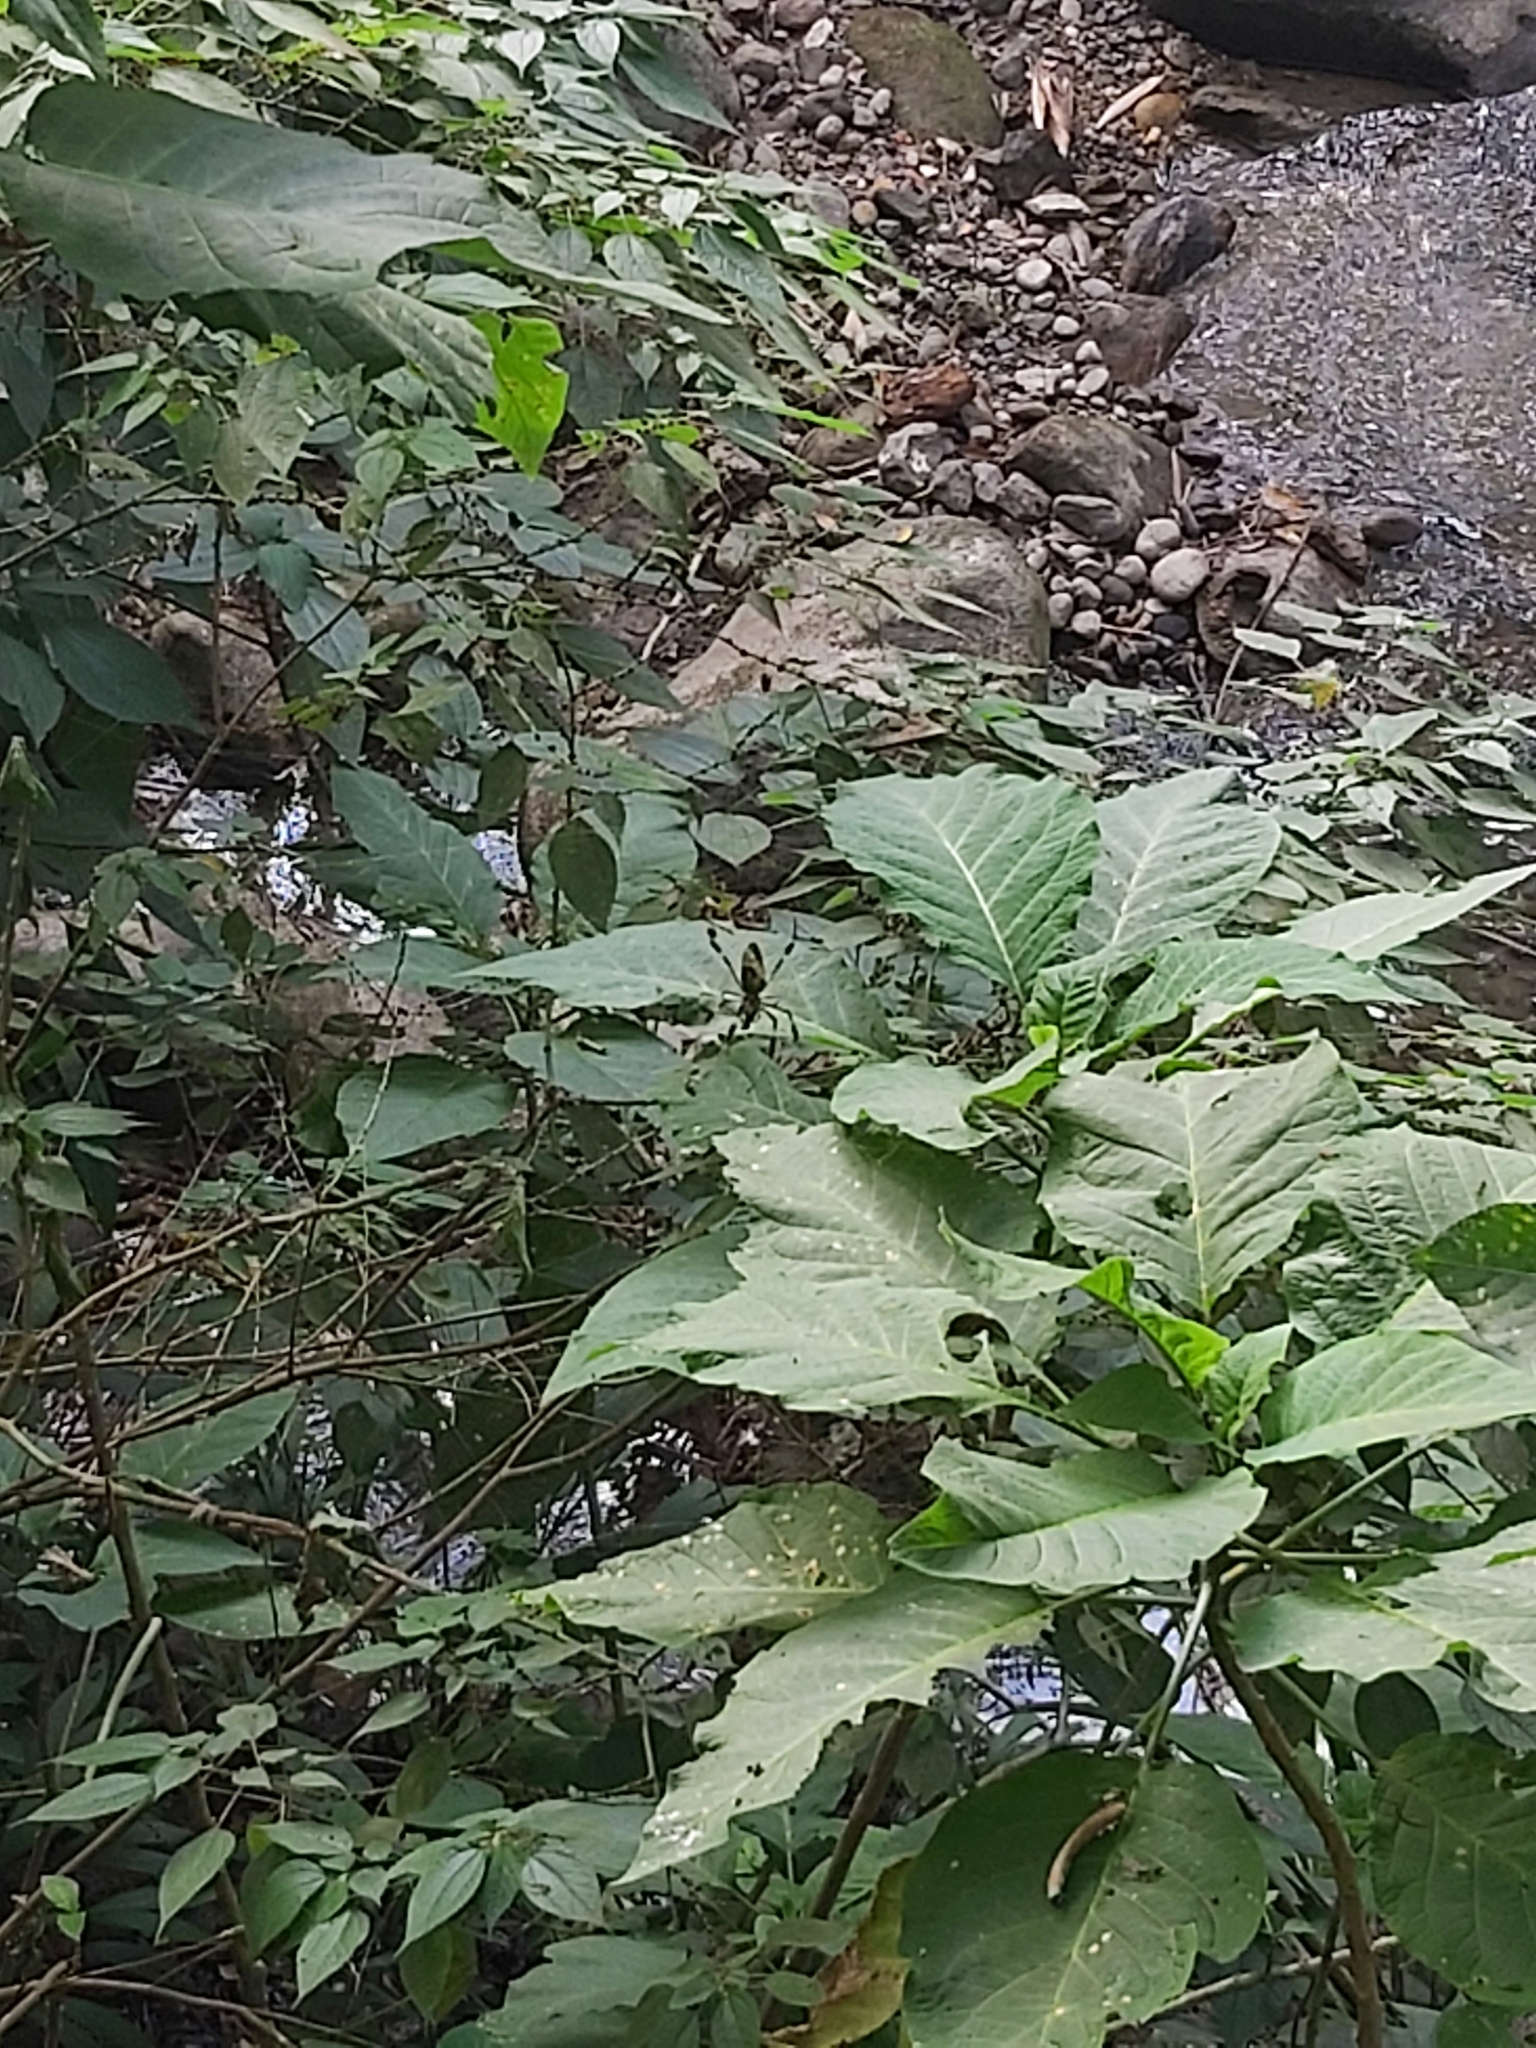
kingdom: Animalia
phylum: Arthropoda
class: Arachnida
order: Araneae
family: Araneidae
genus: Trichonephila
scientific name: Trichonephila clavipes
